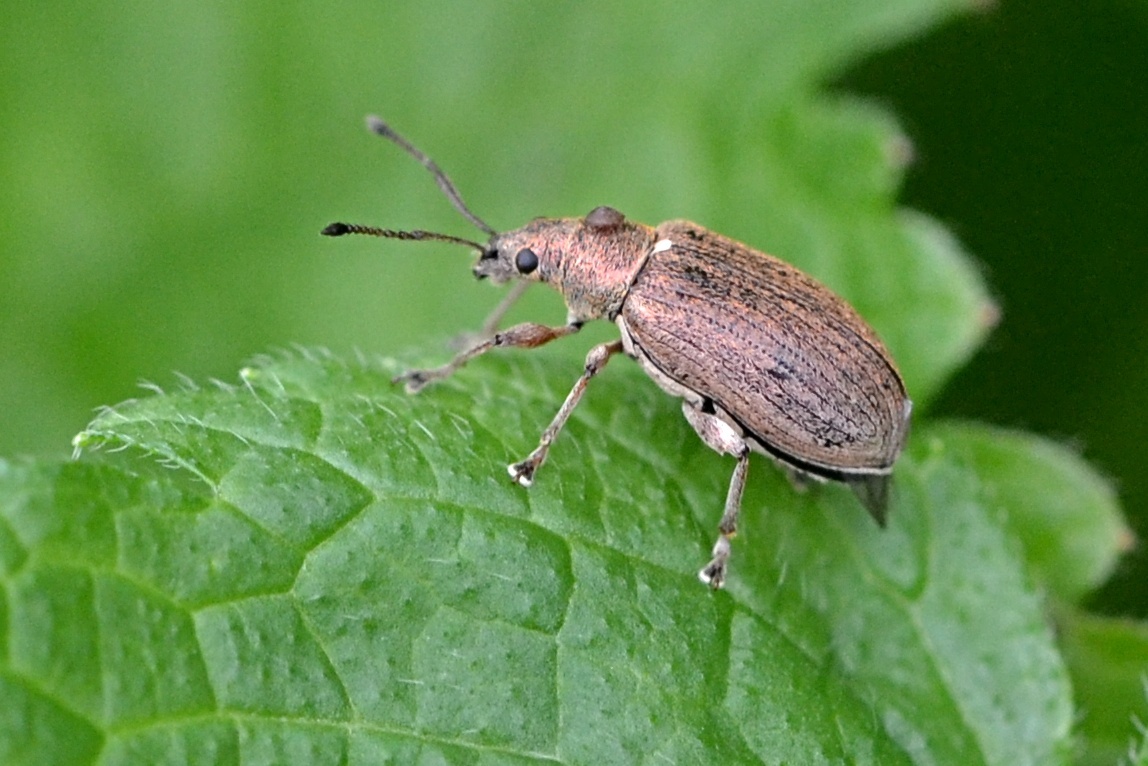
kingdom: Animalia
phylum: Arthropoda
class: Insecta
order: Coleoptera
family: Curculionidae
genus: Phyllobius
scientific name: Phyllobius pyri
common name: Common leaf weevil
